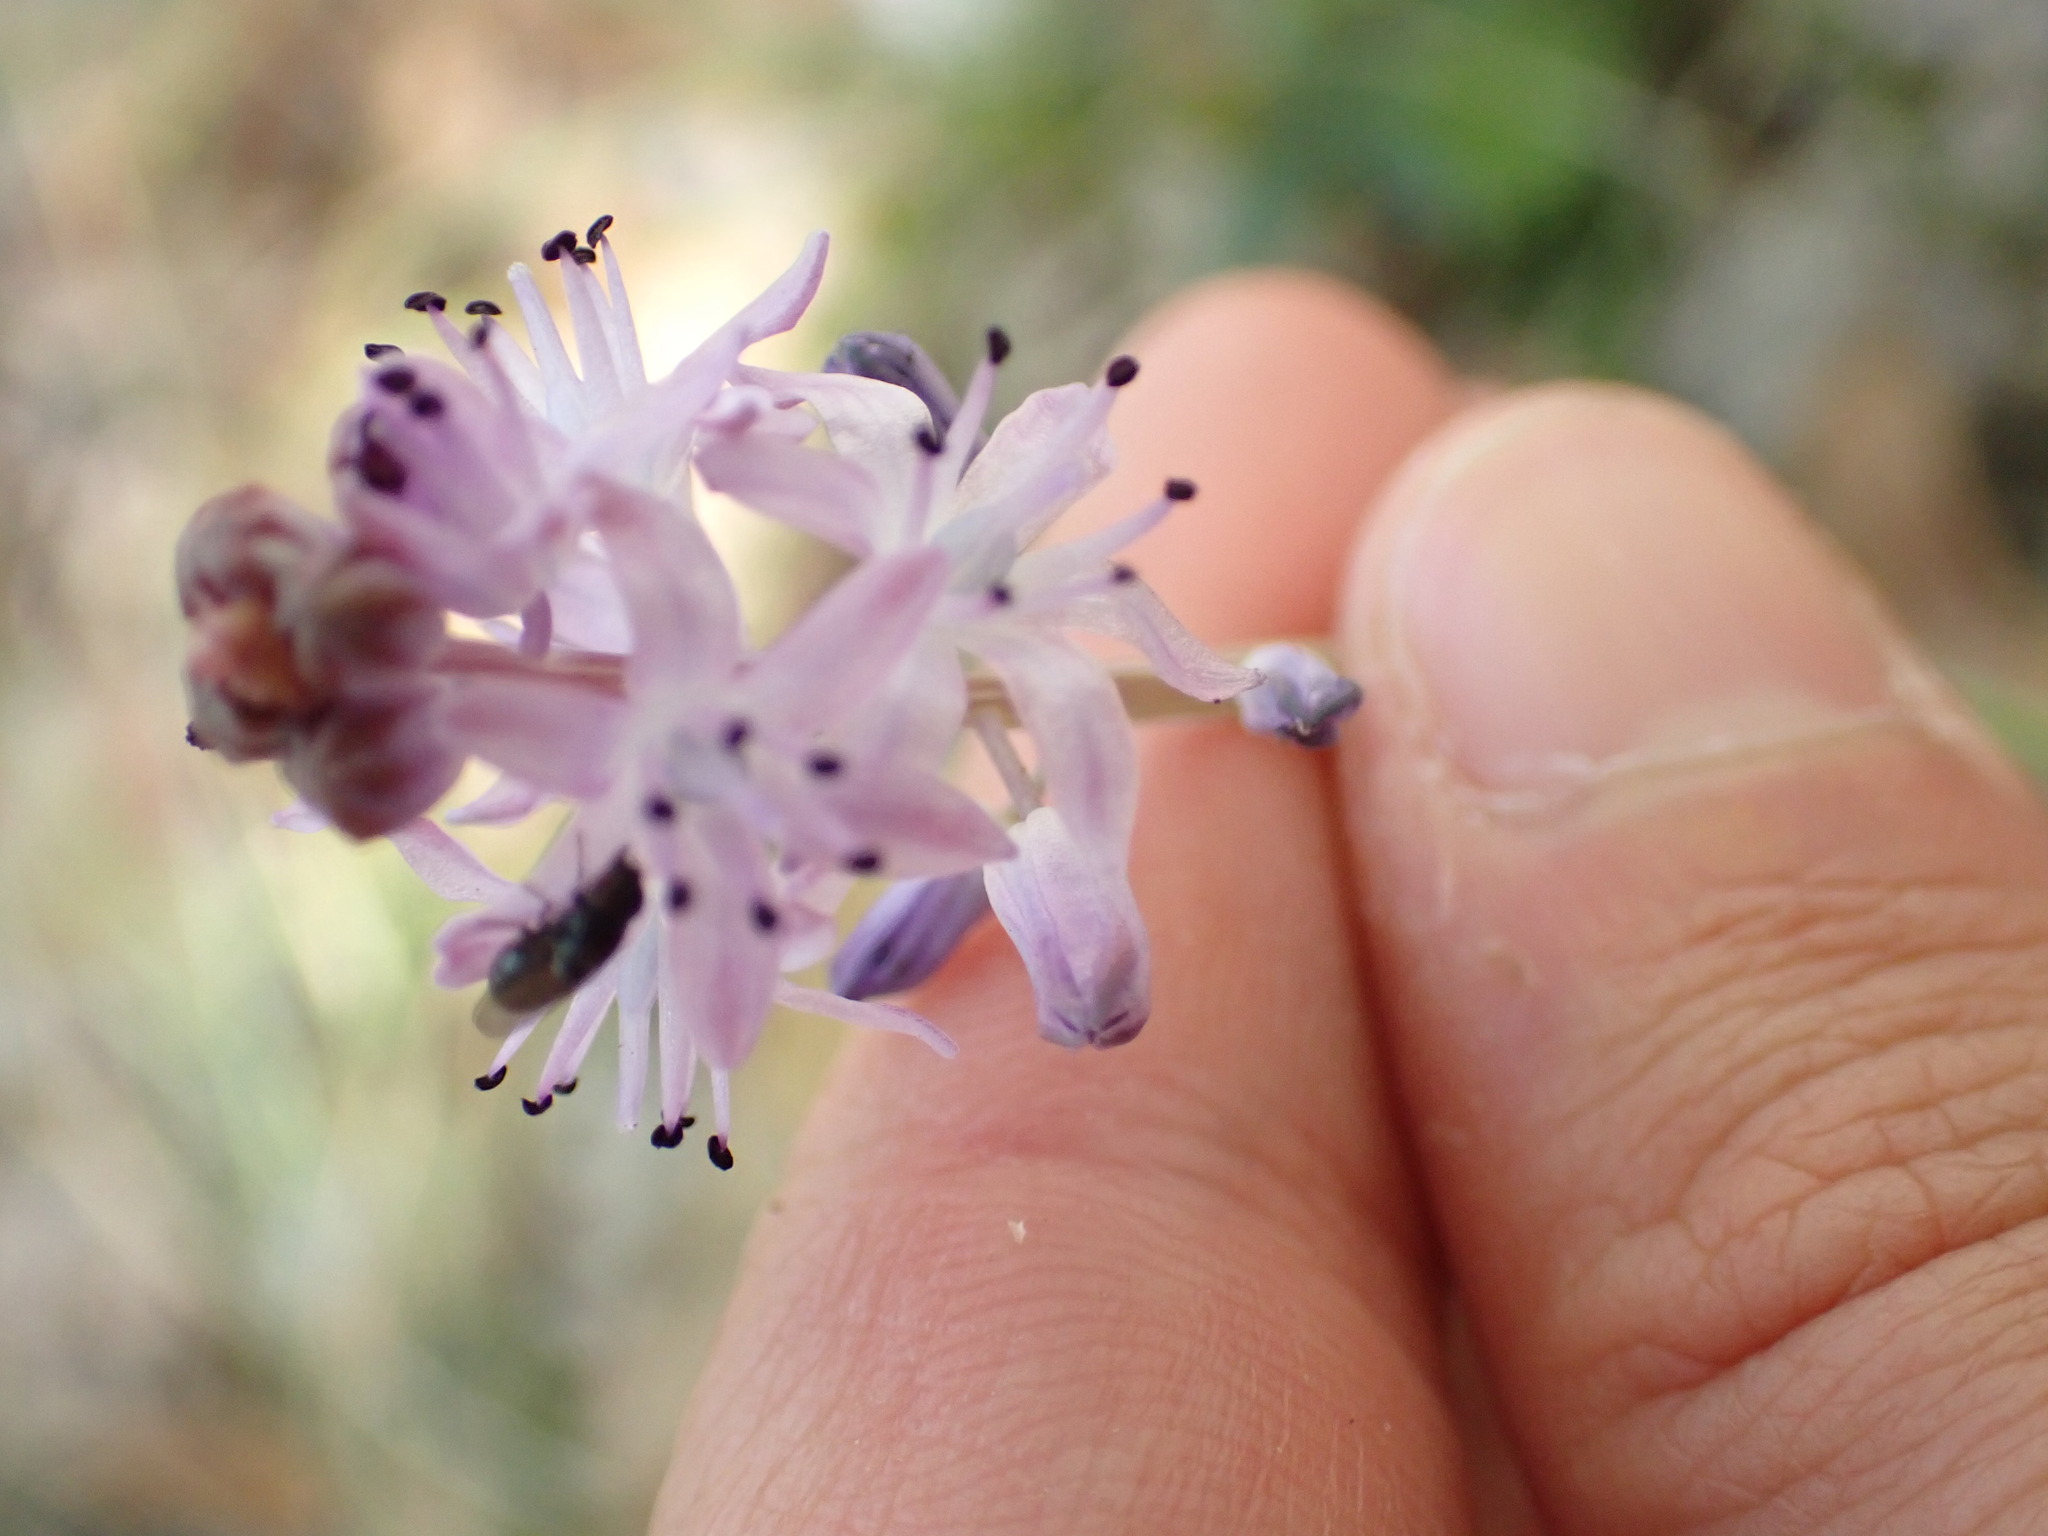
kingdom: Plantae
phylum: Tracheophyta
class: Liliopsida
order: Asparagales
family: Asparagaceae
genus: Prospero
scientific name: Prospero autumnale
